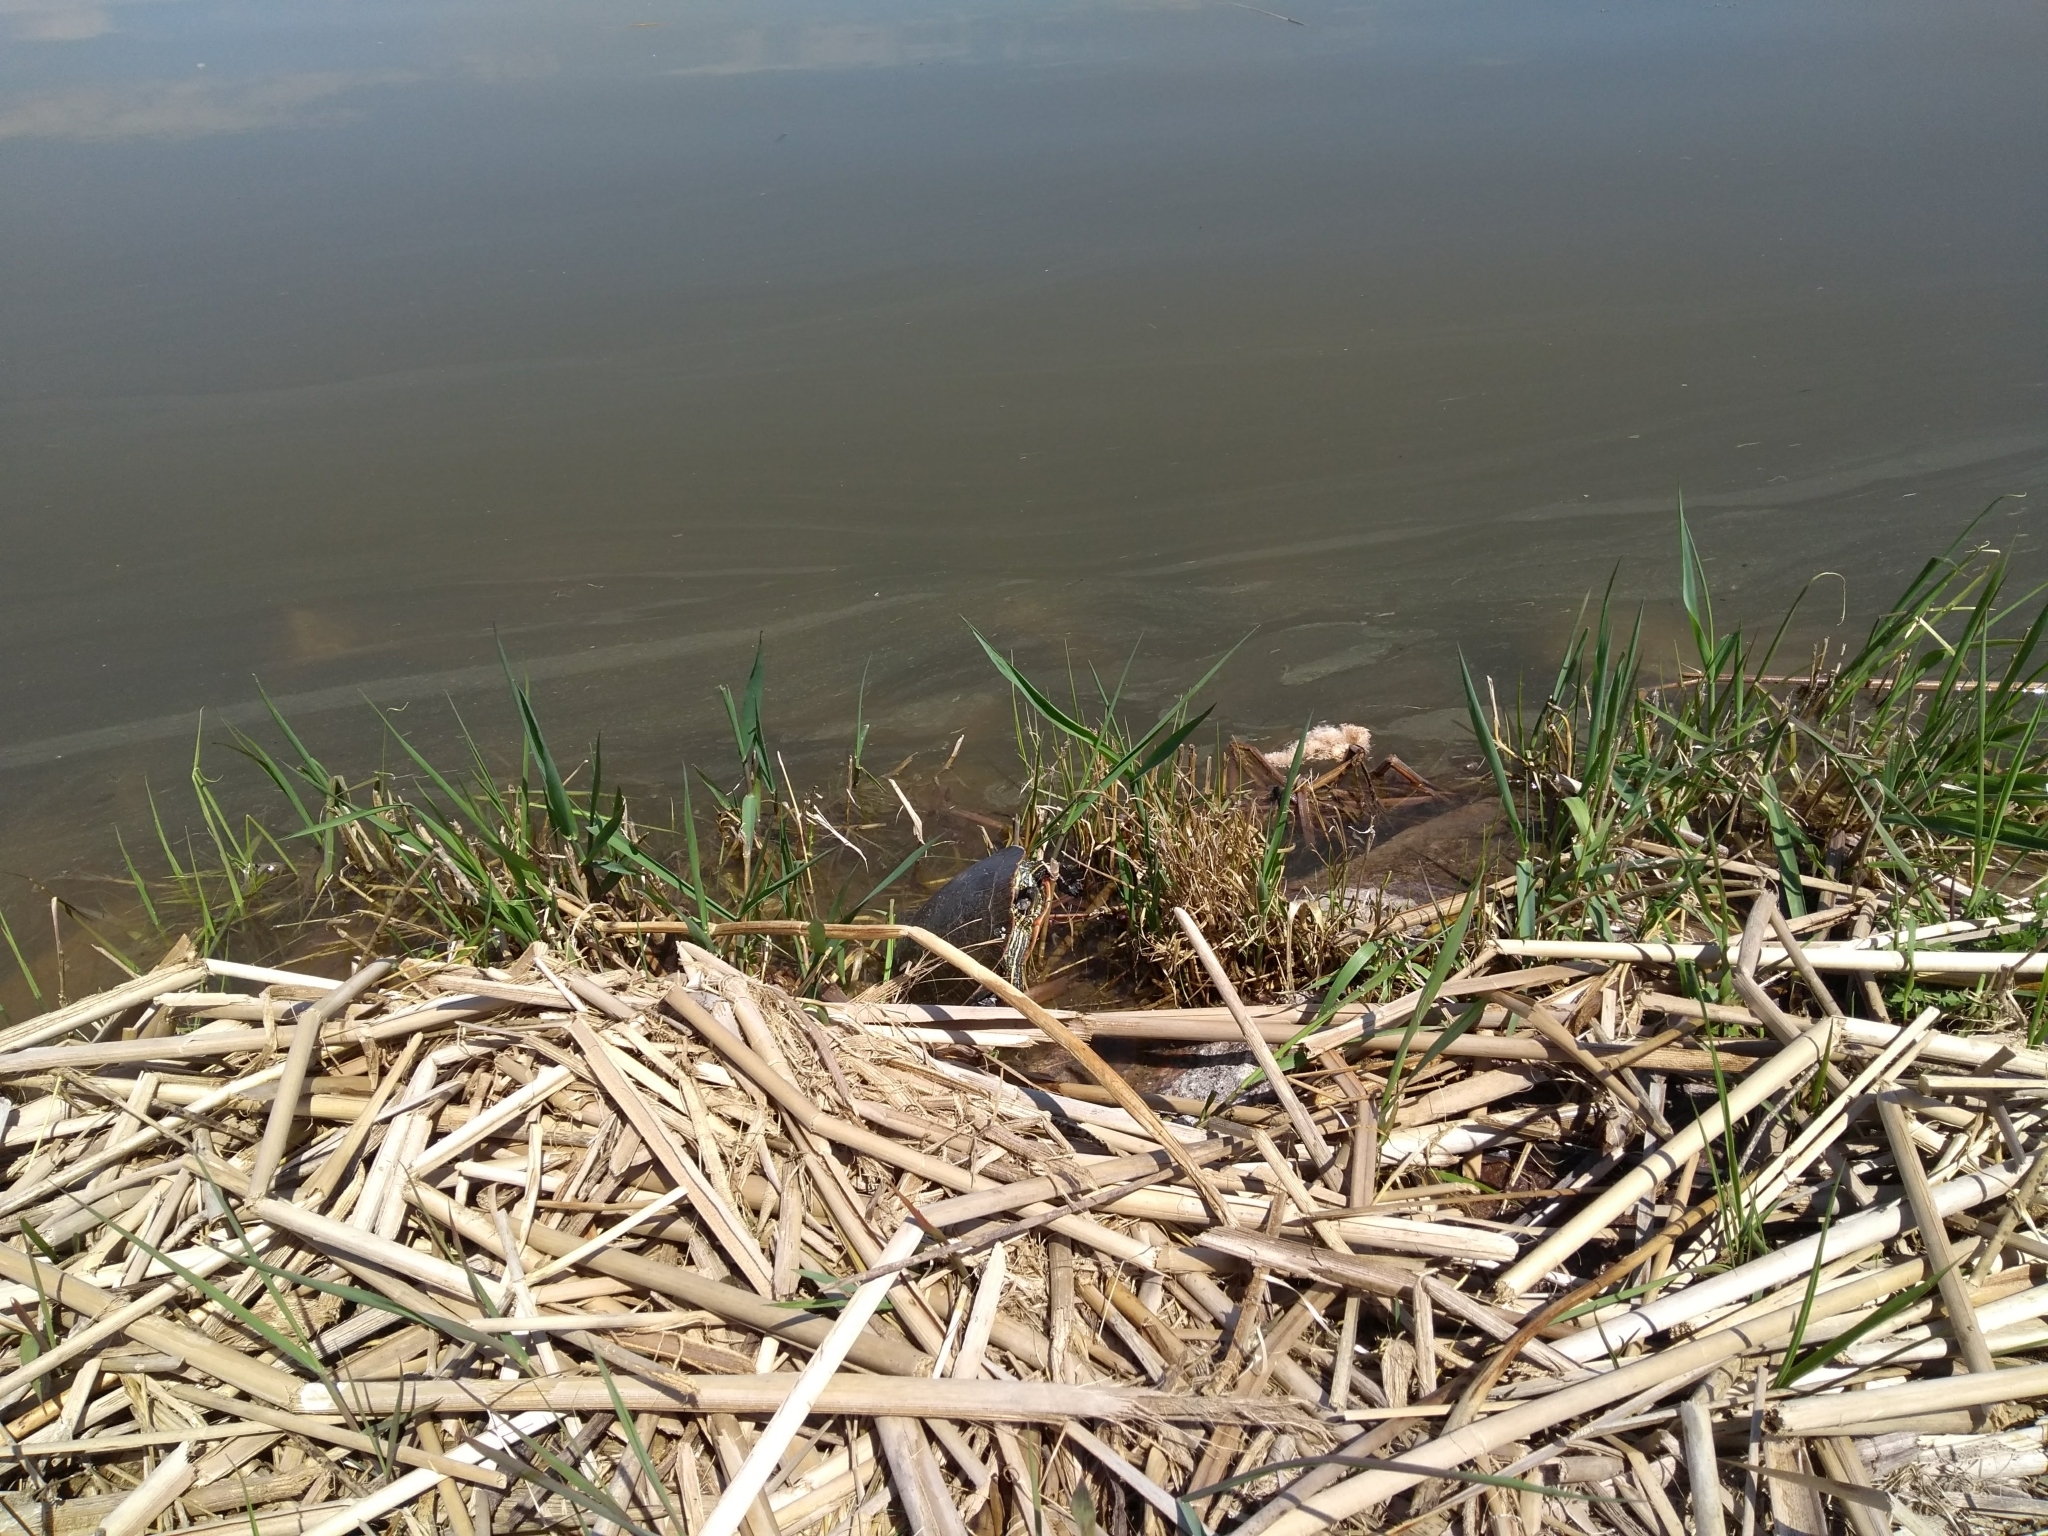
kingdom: Animalia
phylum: Chordata
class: Testudines
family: Emydidae
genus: Chrysemys
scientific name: Chrysemys picta
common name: Painted turtle
